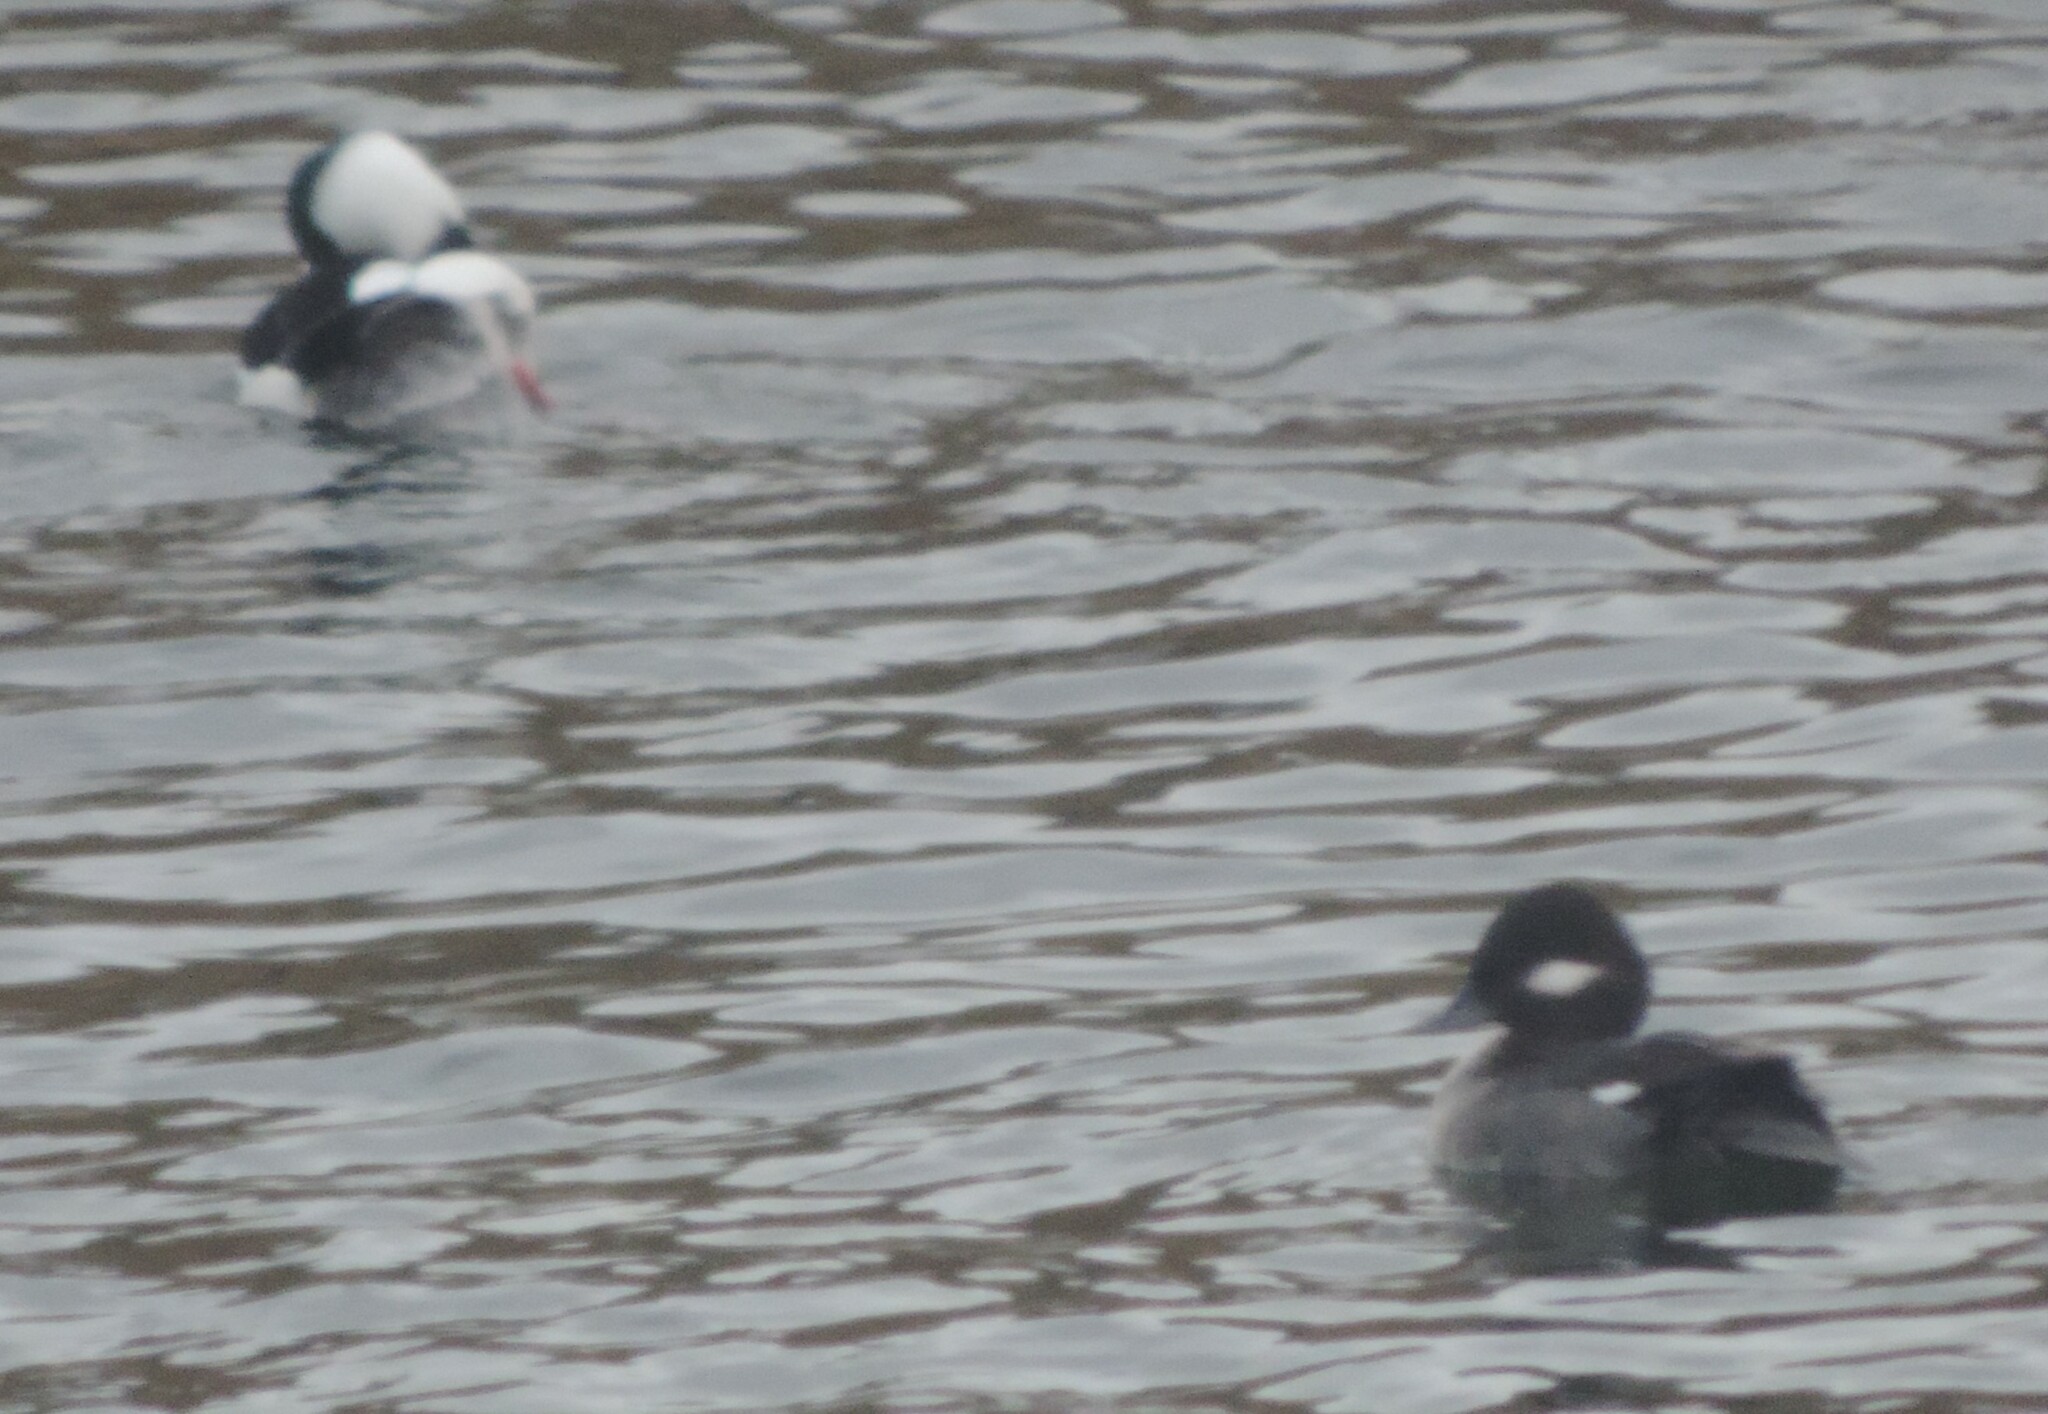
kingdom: Animalia
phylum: Chordata
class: Aves
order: Anseriformes
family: Anatidae
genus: Bucephala
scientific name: Bucephala albeola
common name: Bufflehead
